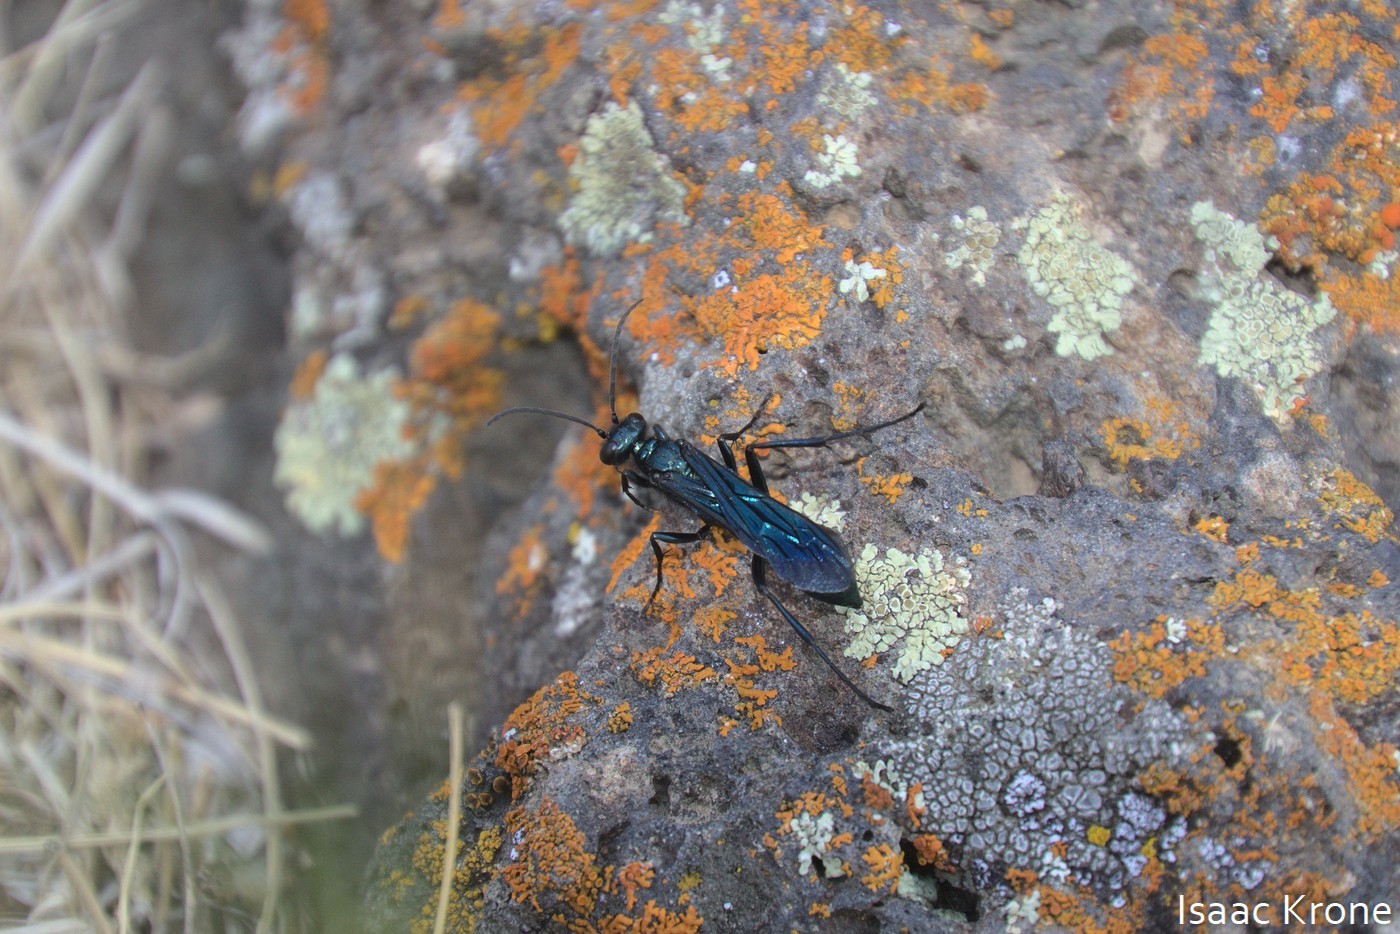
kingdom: Animalia
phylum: Arthropoda
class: Insecta
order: Hymenoptera
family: Sphecidae
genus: Chalybion
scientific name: Chalybion californicum
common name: Mud dauber
